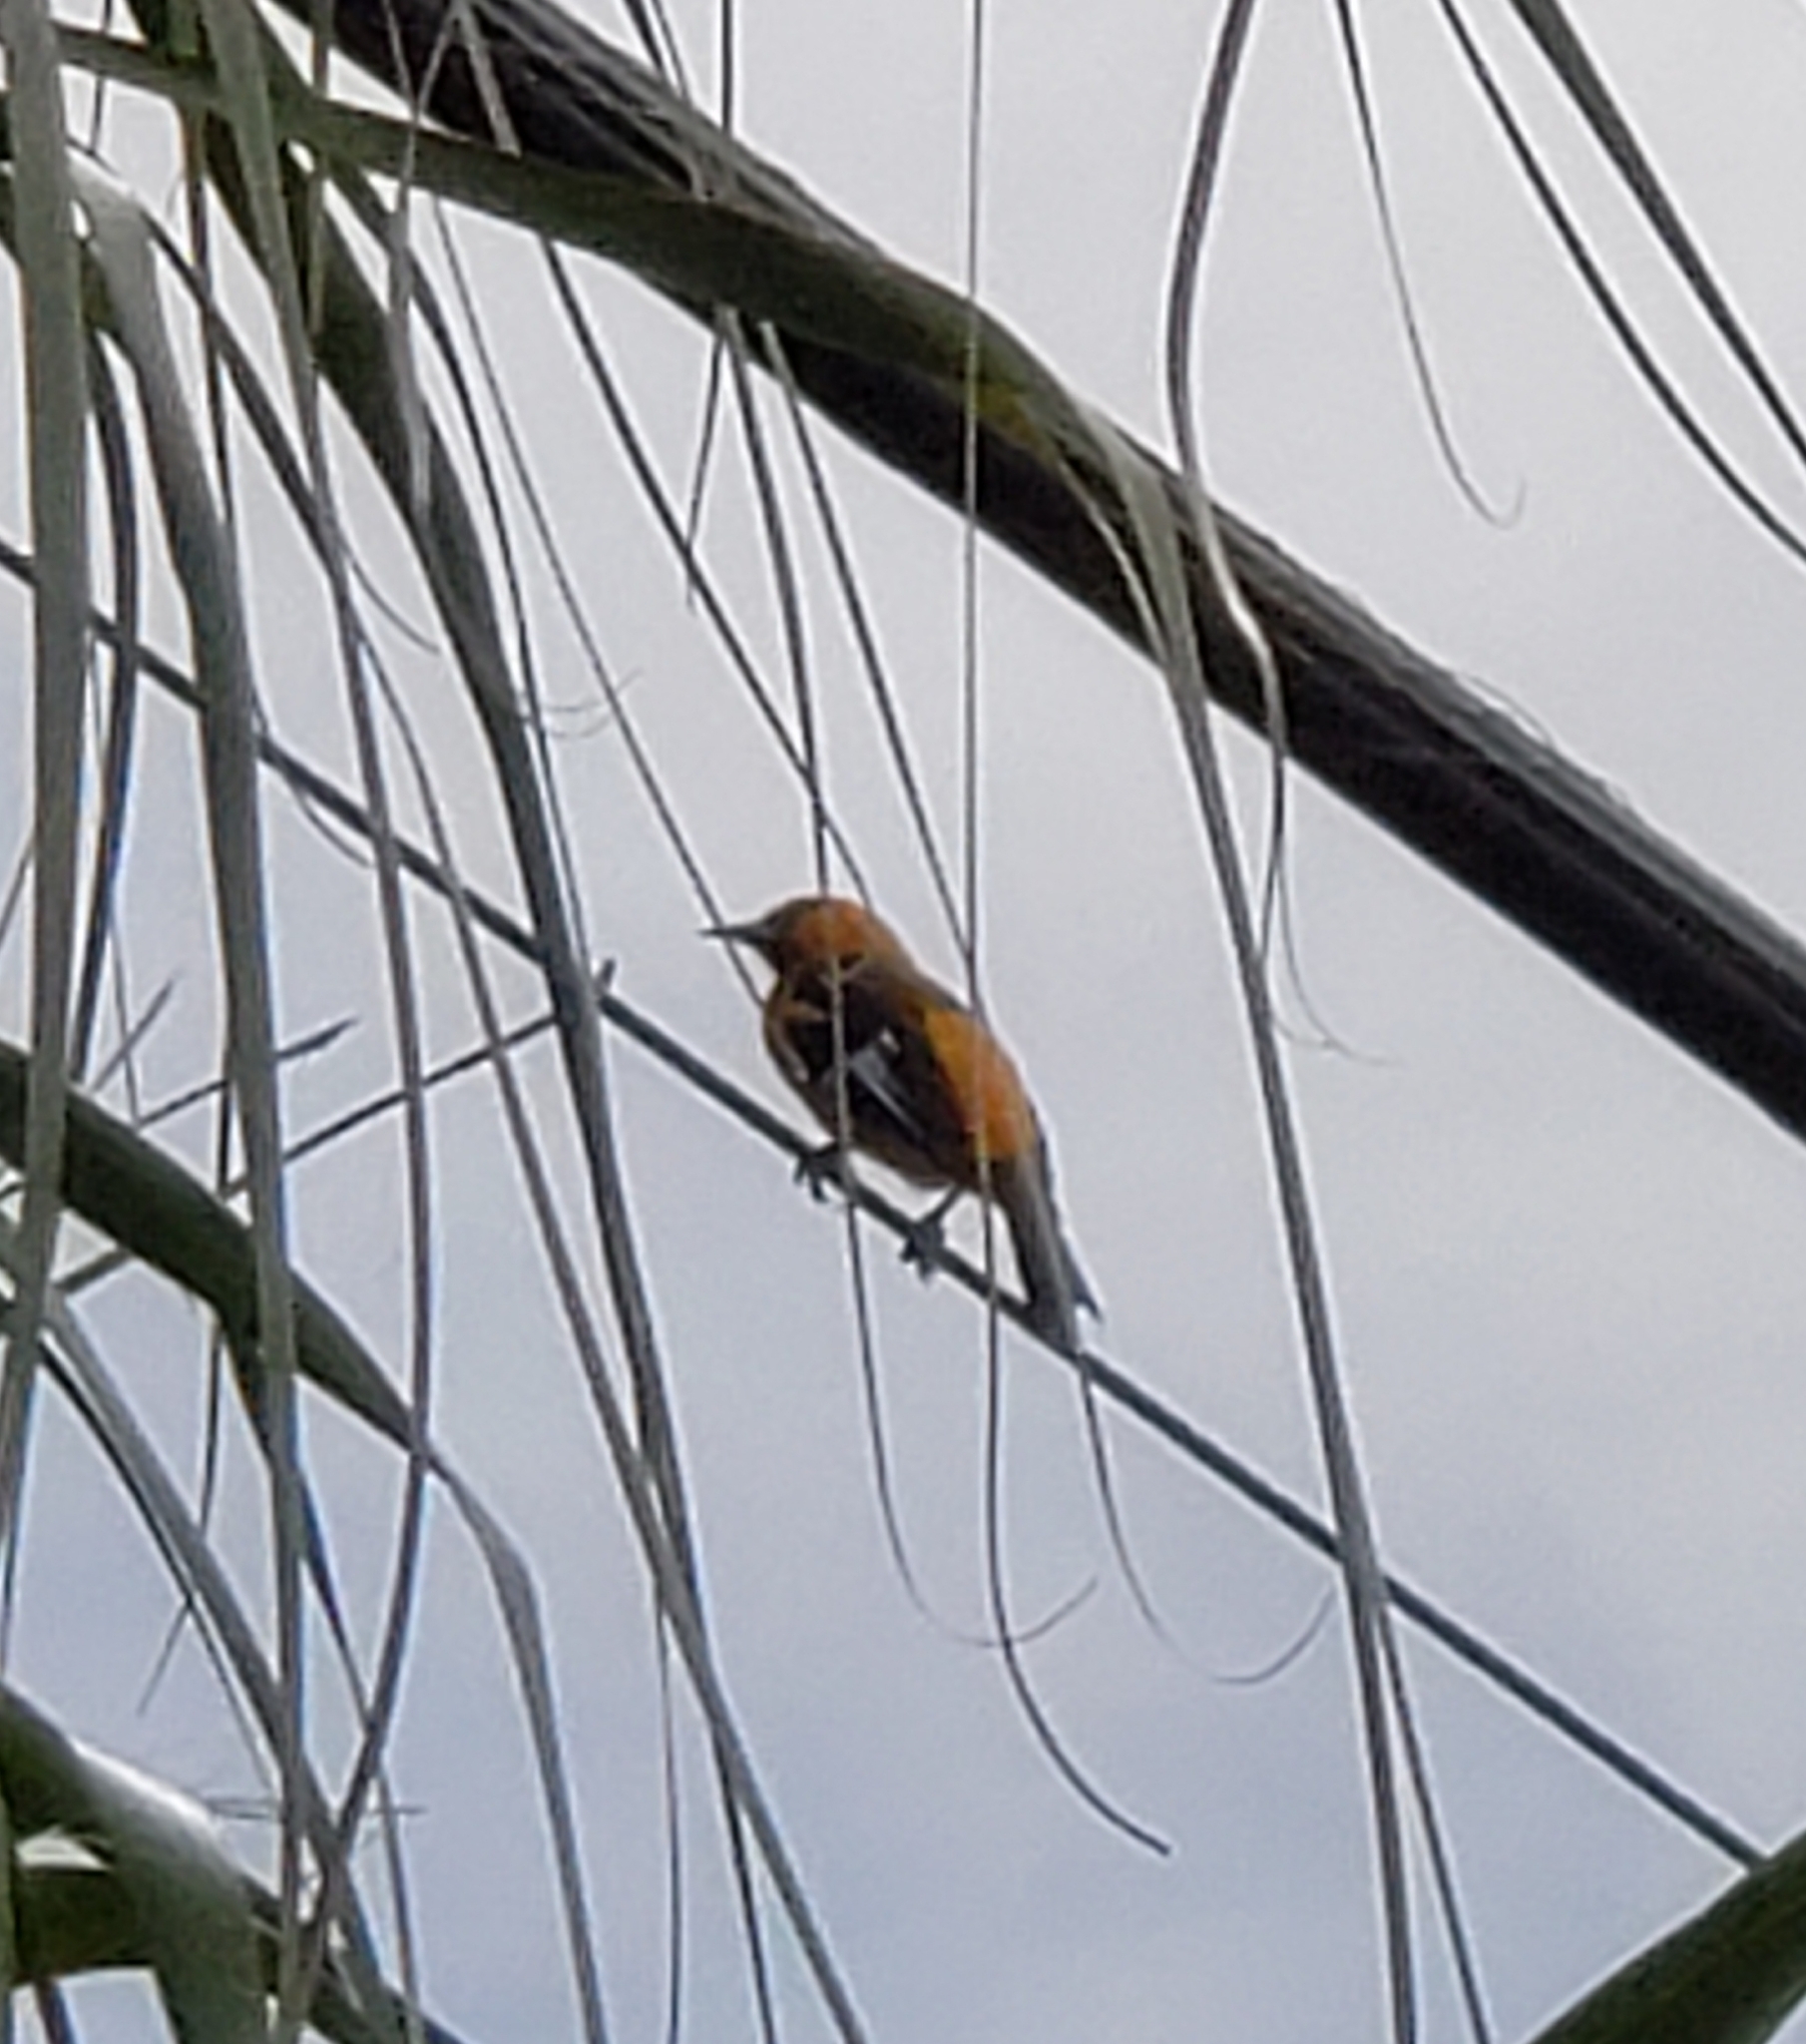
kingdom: Animalia
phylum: Chordata
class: Aves
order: Passeriformes
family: Icteridae
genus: Icterus
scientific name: Icterus pectoralis
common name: Spot-breasted oriole
